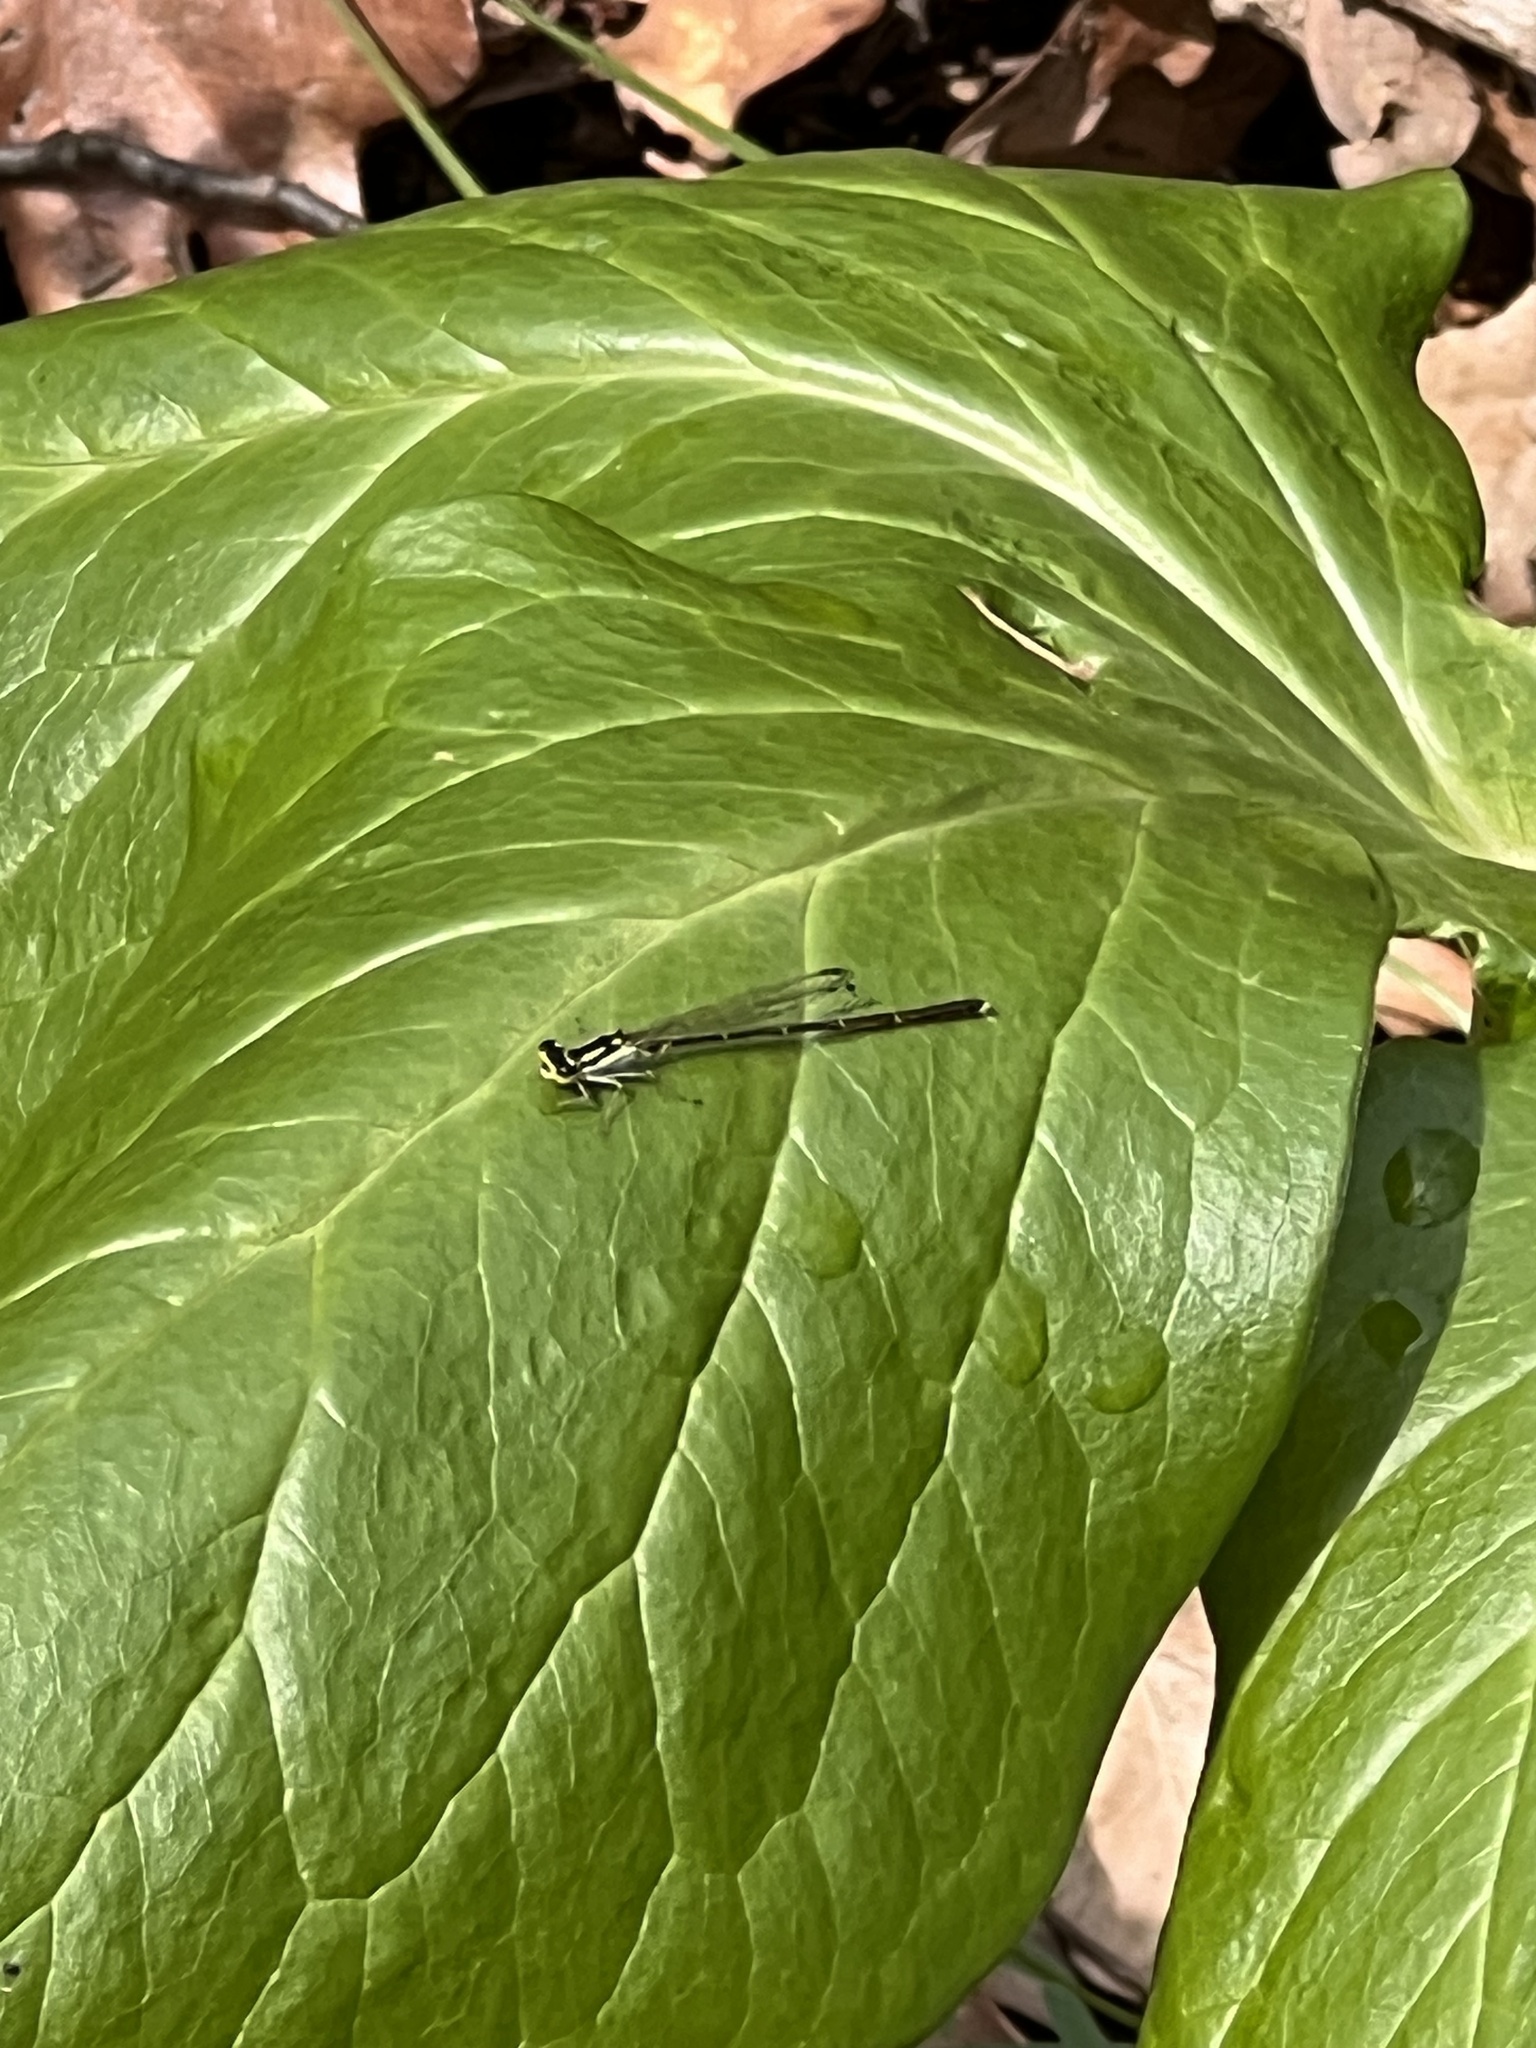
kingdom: Animalia
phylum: Arthropoda
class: Insecta
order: Odonata
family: Coenagrionidae
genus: Ischnura
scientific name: Ischnura posita
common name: Fragile forktail
